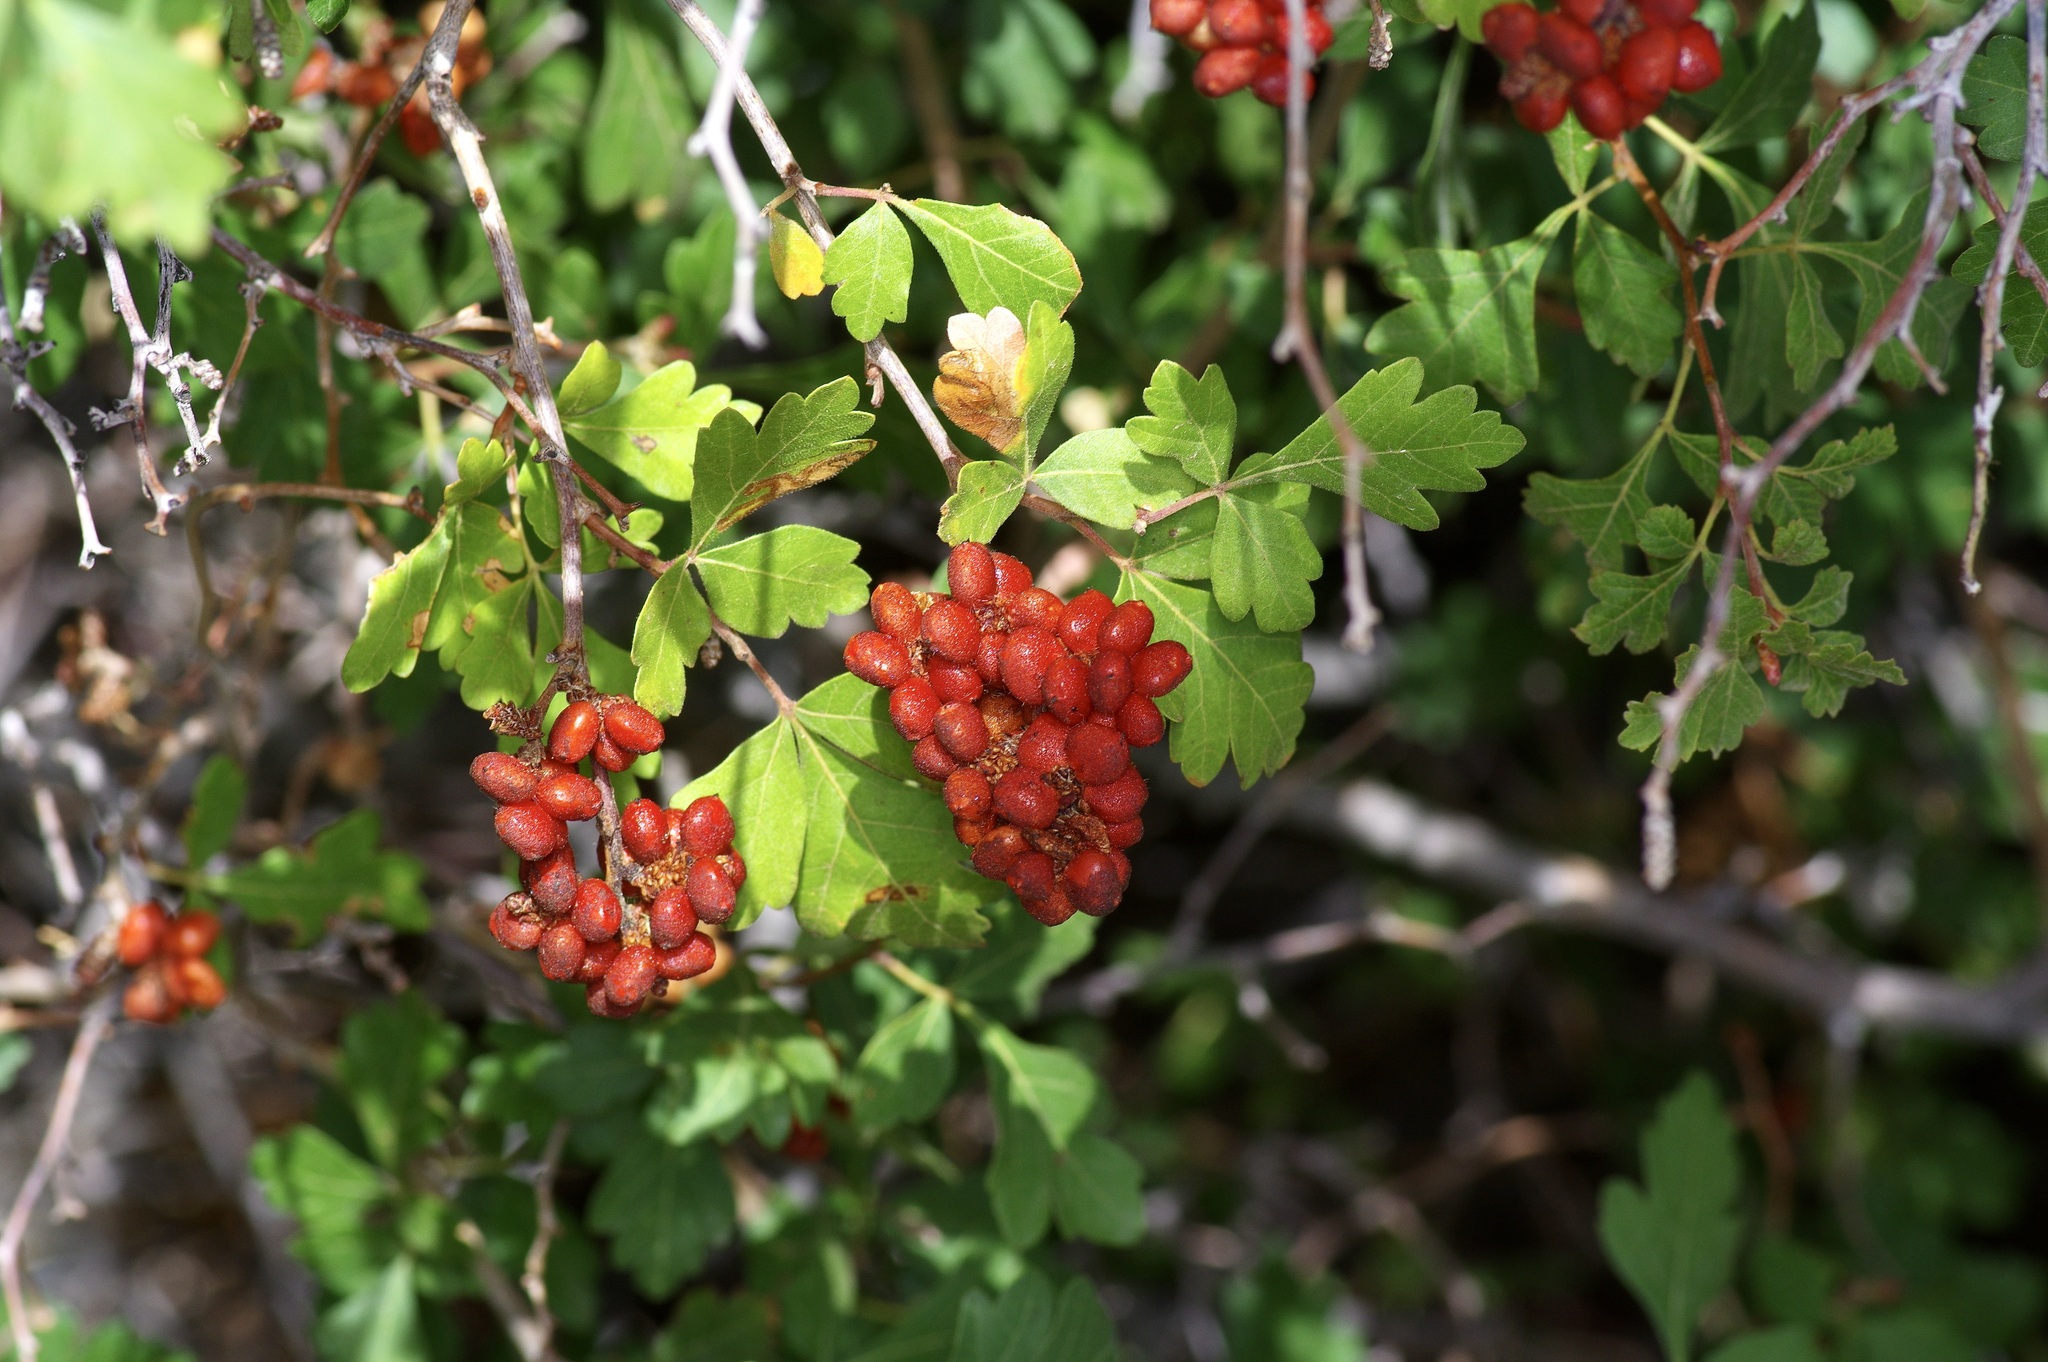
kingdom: Plantae
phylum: Tracheophyta
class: Magnoliopsida
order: Sapindales
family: Anacardiaceae
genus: Rhus
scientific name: Rhus trilobata
